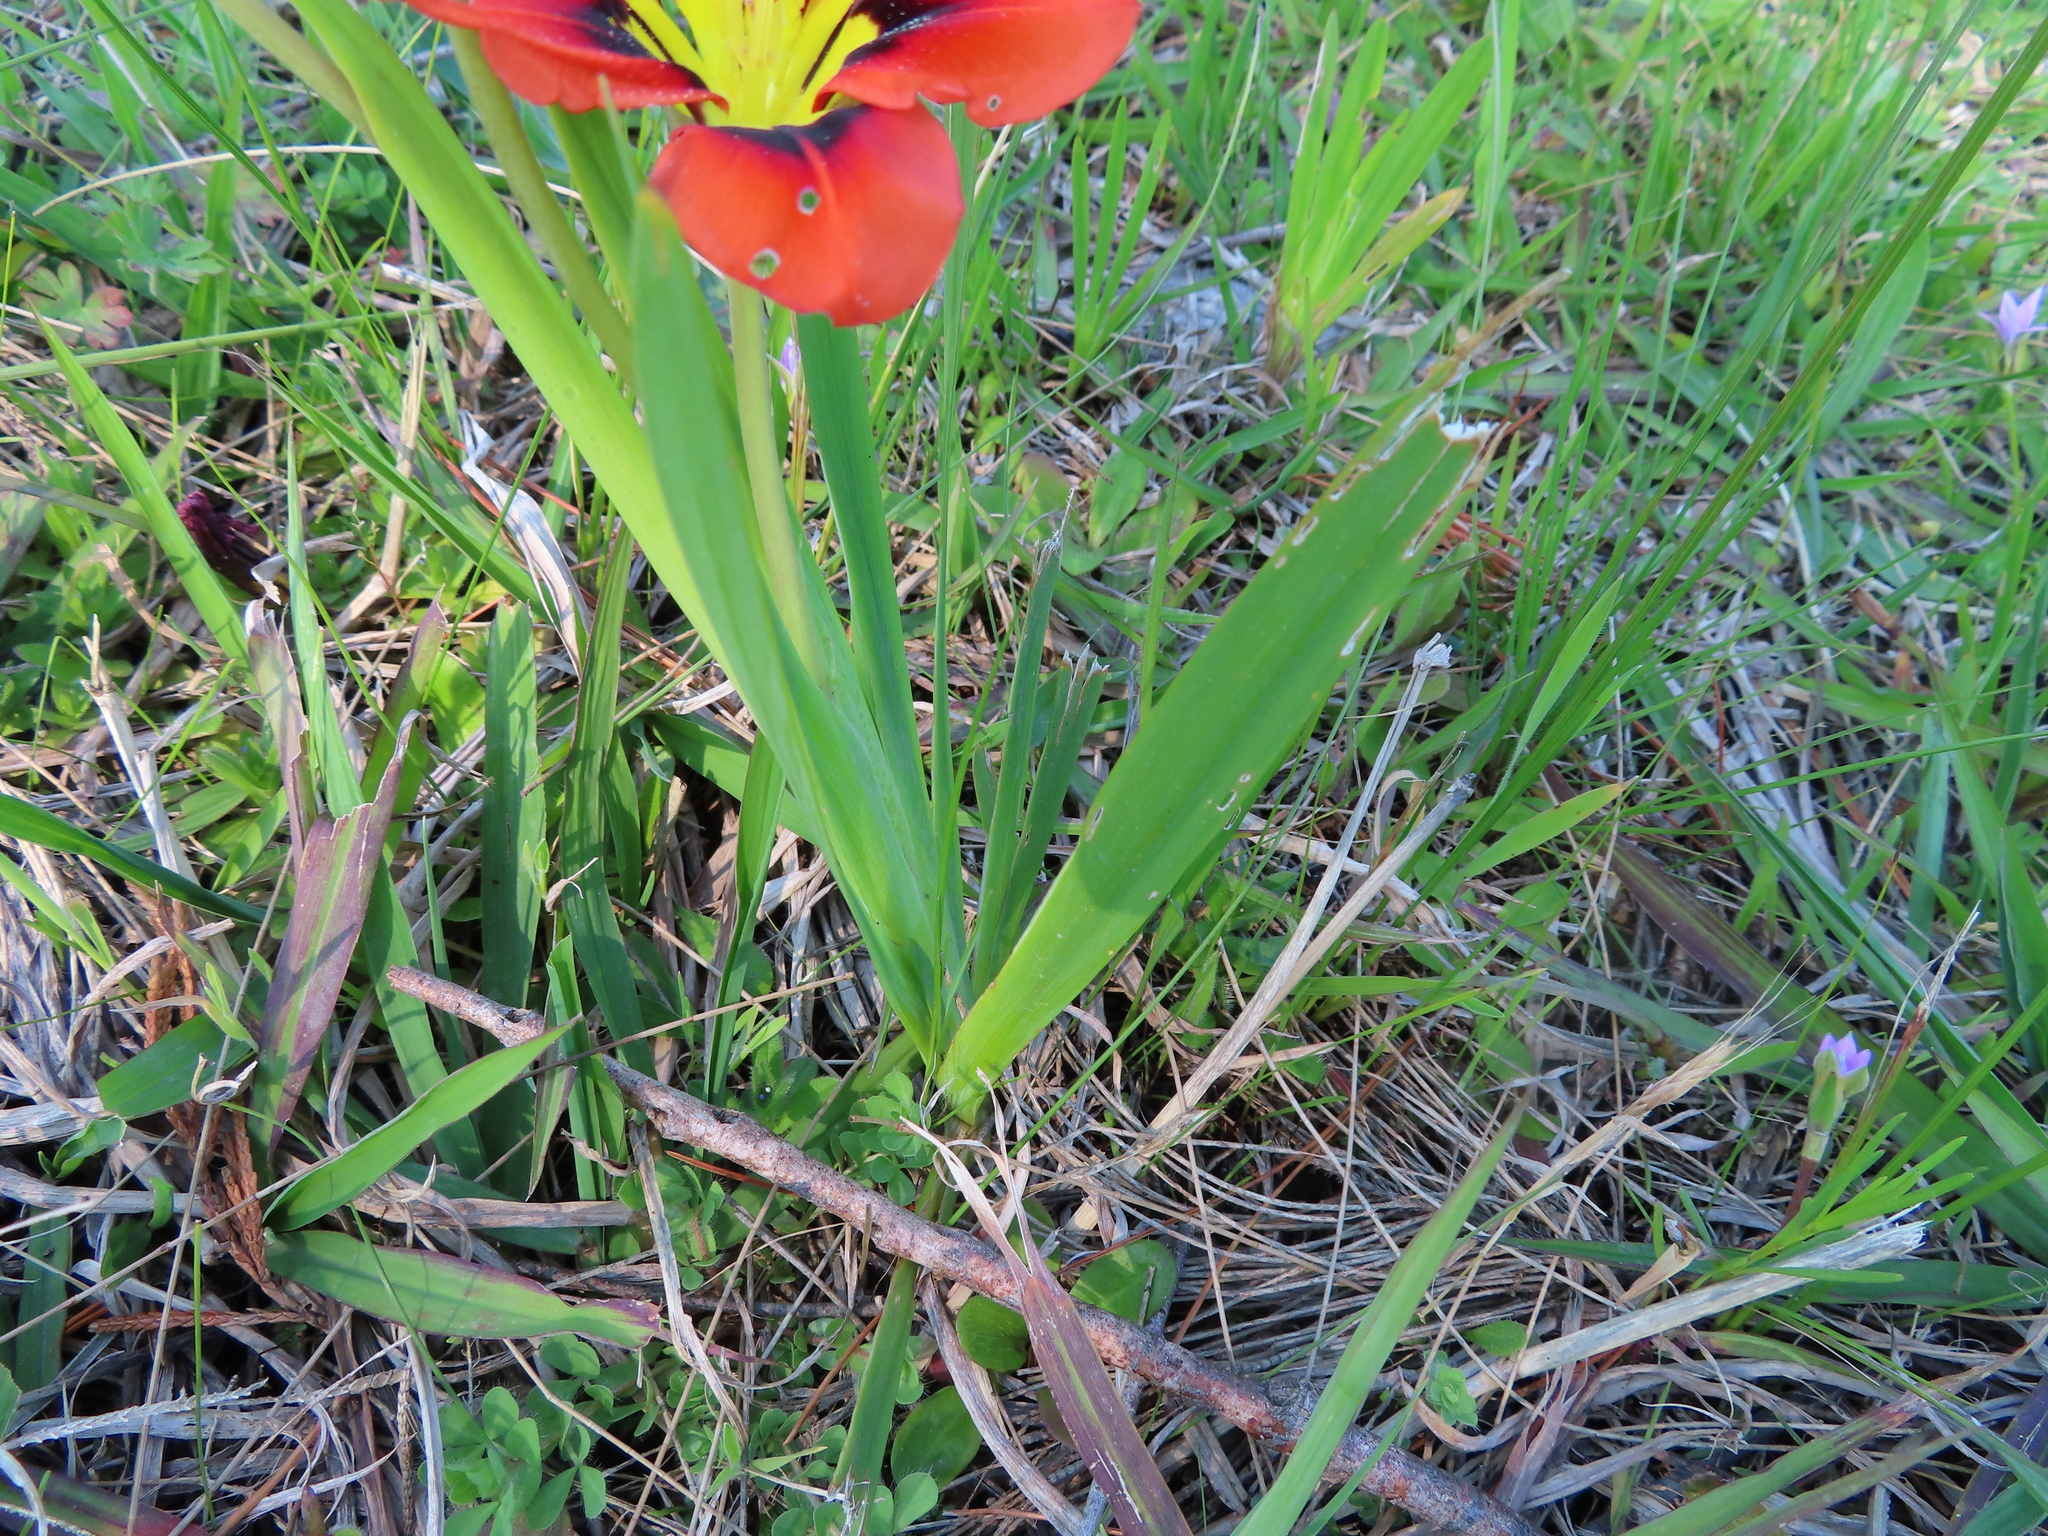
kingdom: Plantae
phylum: Tracheophyta
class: Liliopsida
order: Asparagales
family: Iridaceae
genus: Sparaxis
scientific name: Sparaxis tricolor
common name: Wandflower
